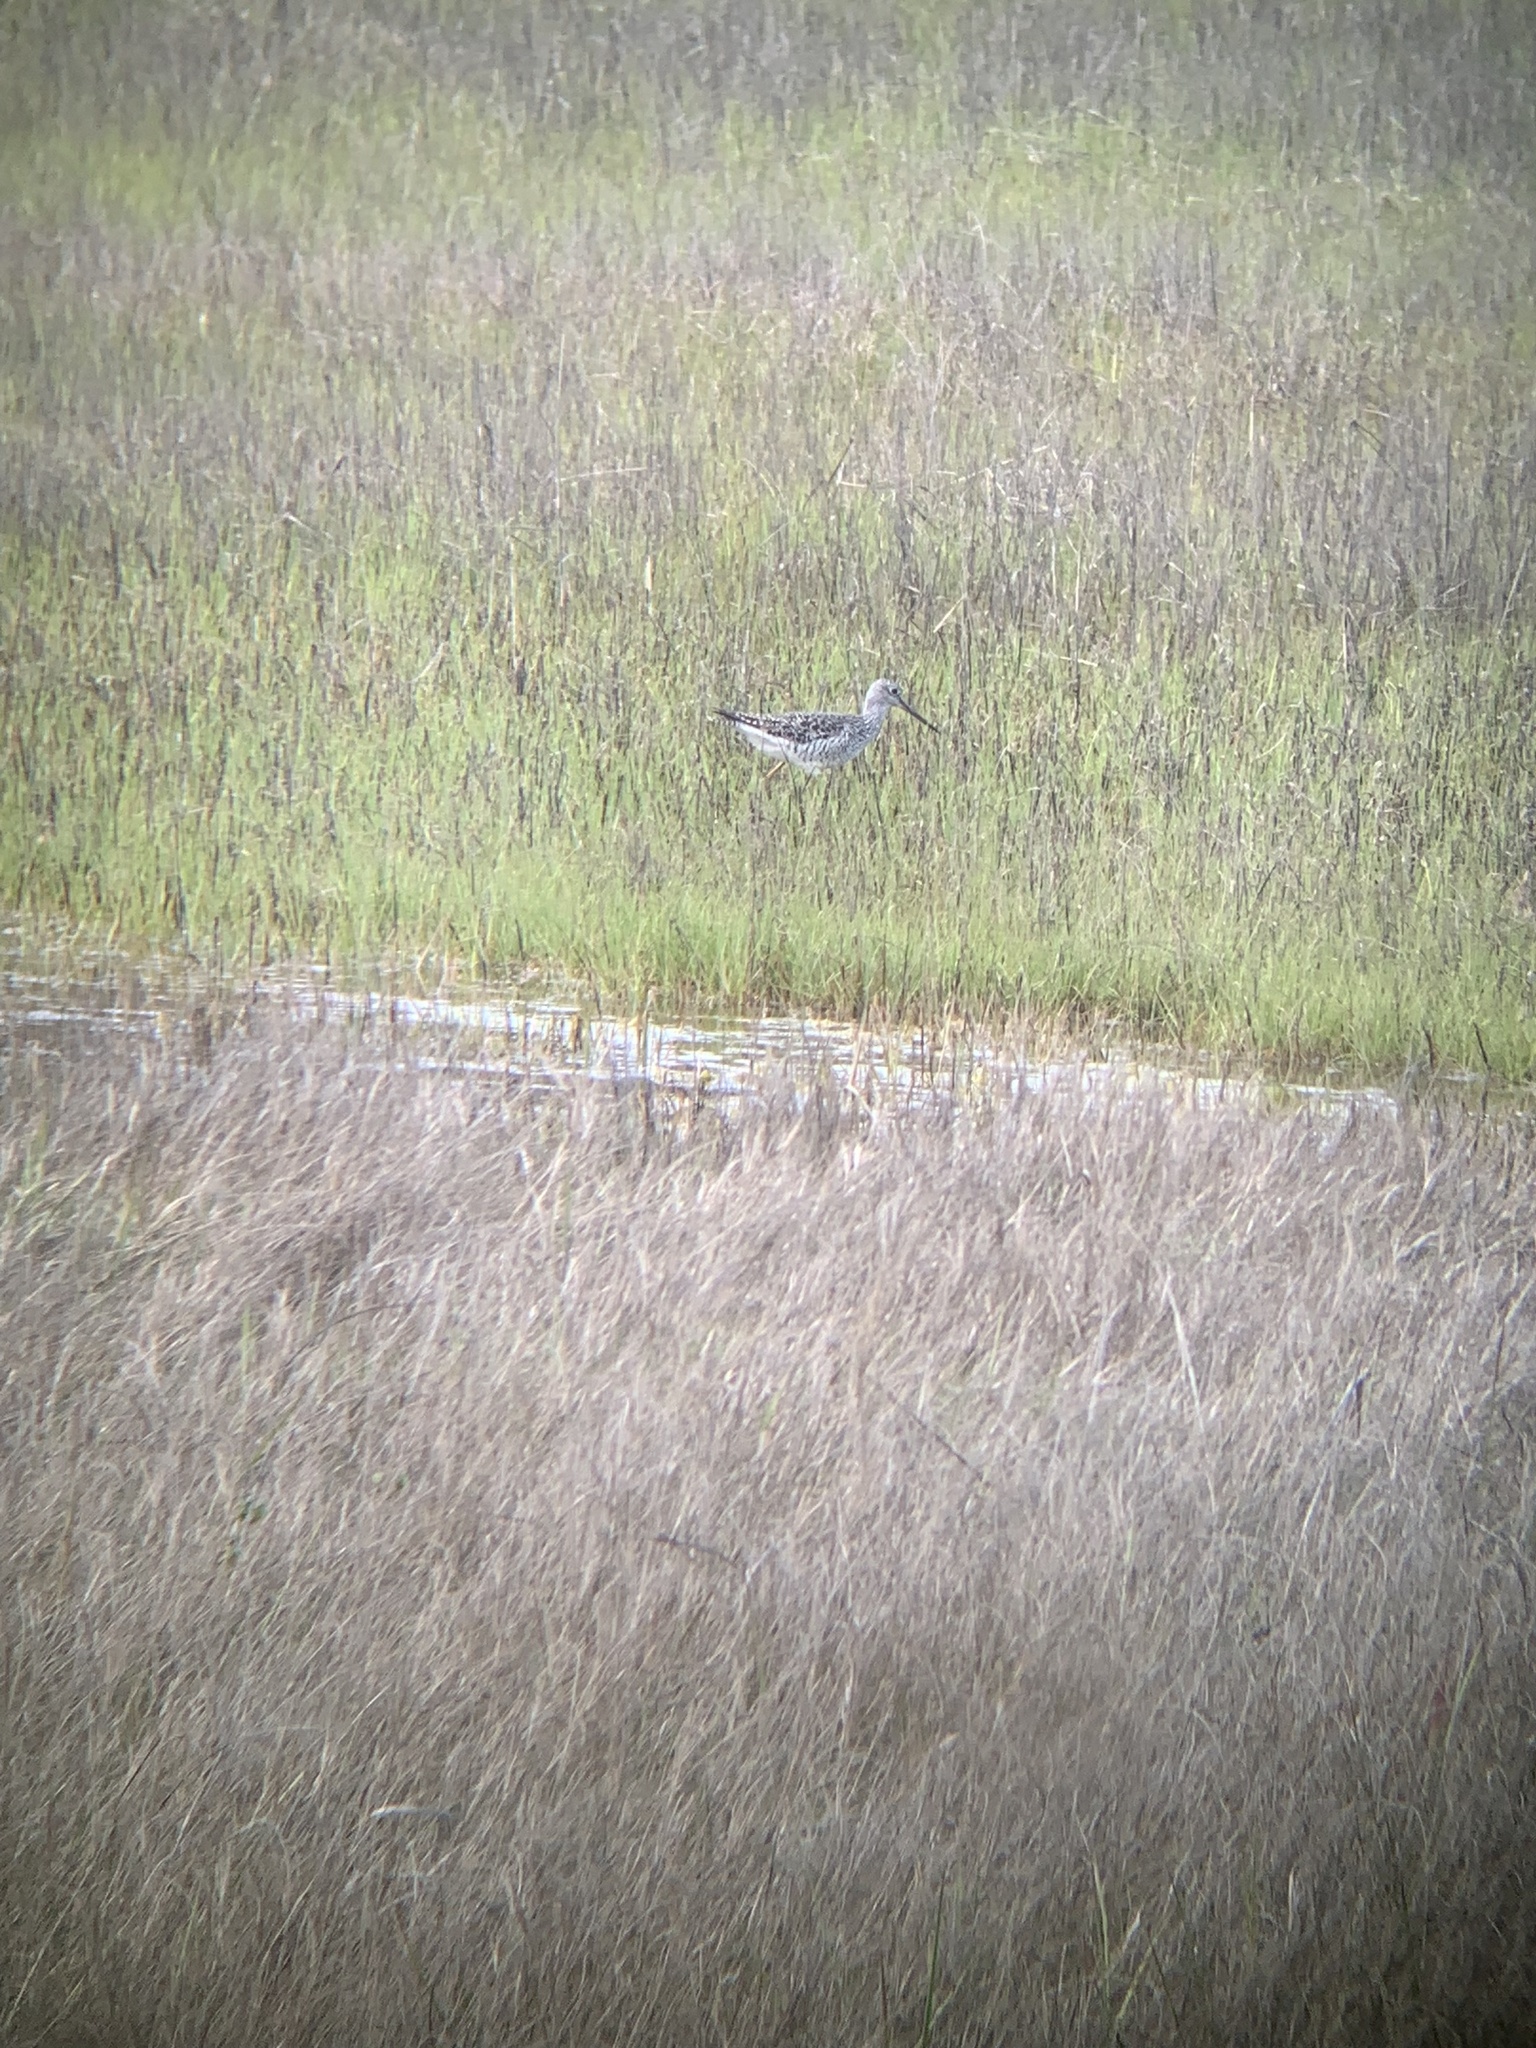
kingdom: Animalia
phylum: Chordata
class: Aves
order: Charadriiformes
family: Scolopacidae
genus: Tringa
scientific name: Tringa melanoleuca
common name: Greater yellowlegs
